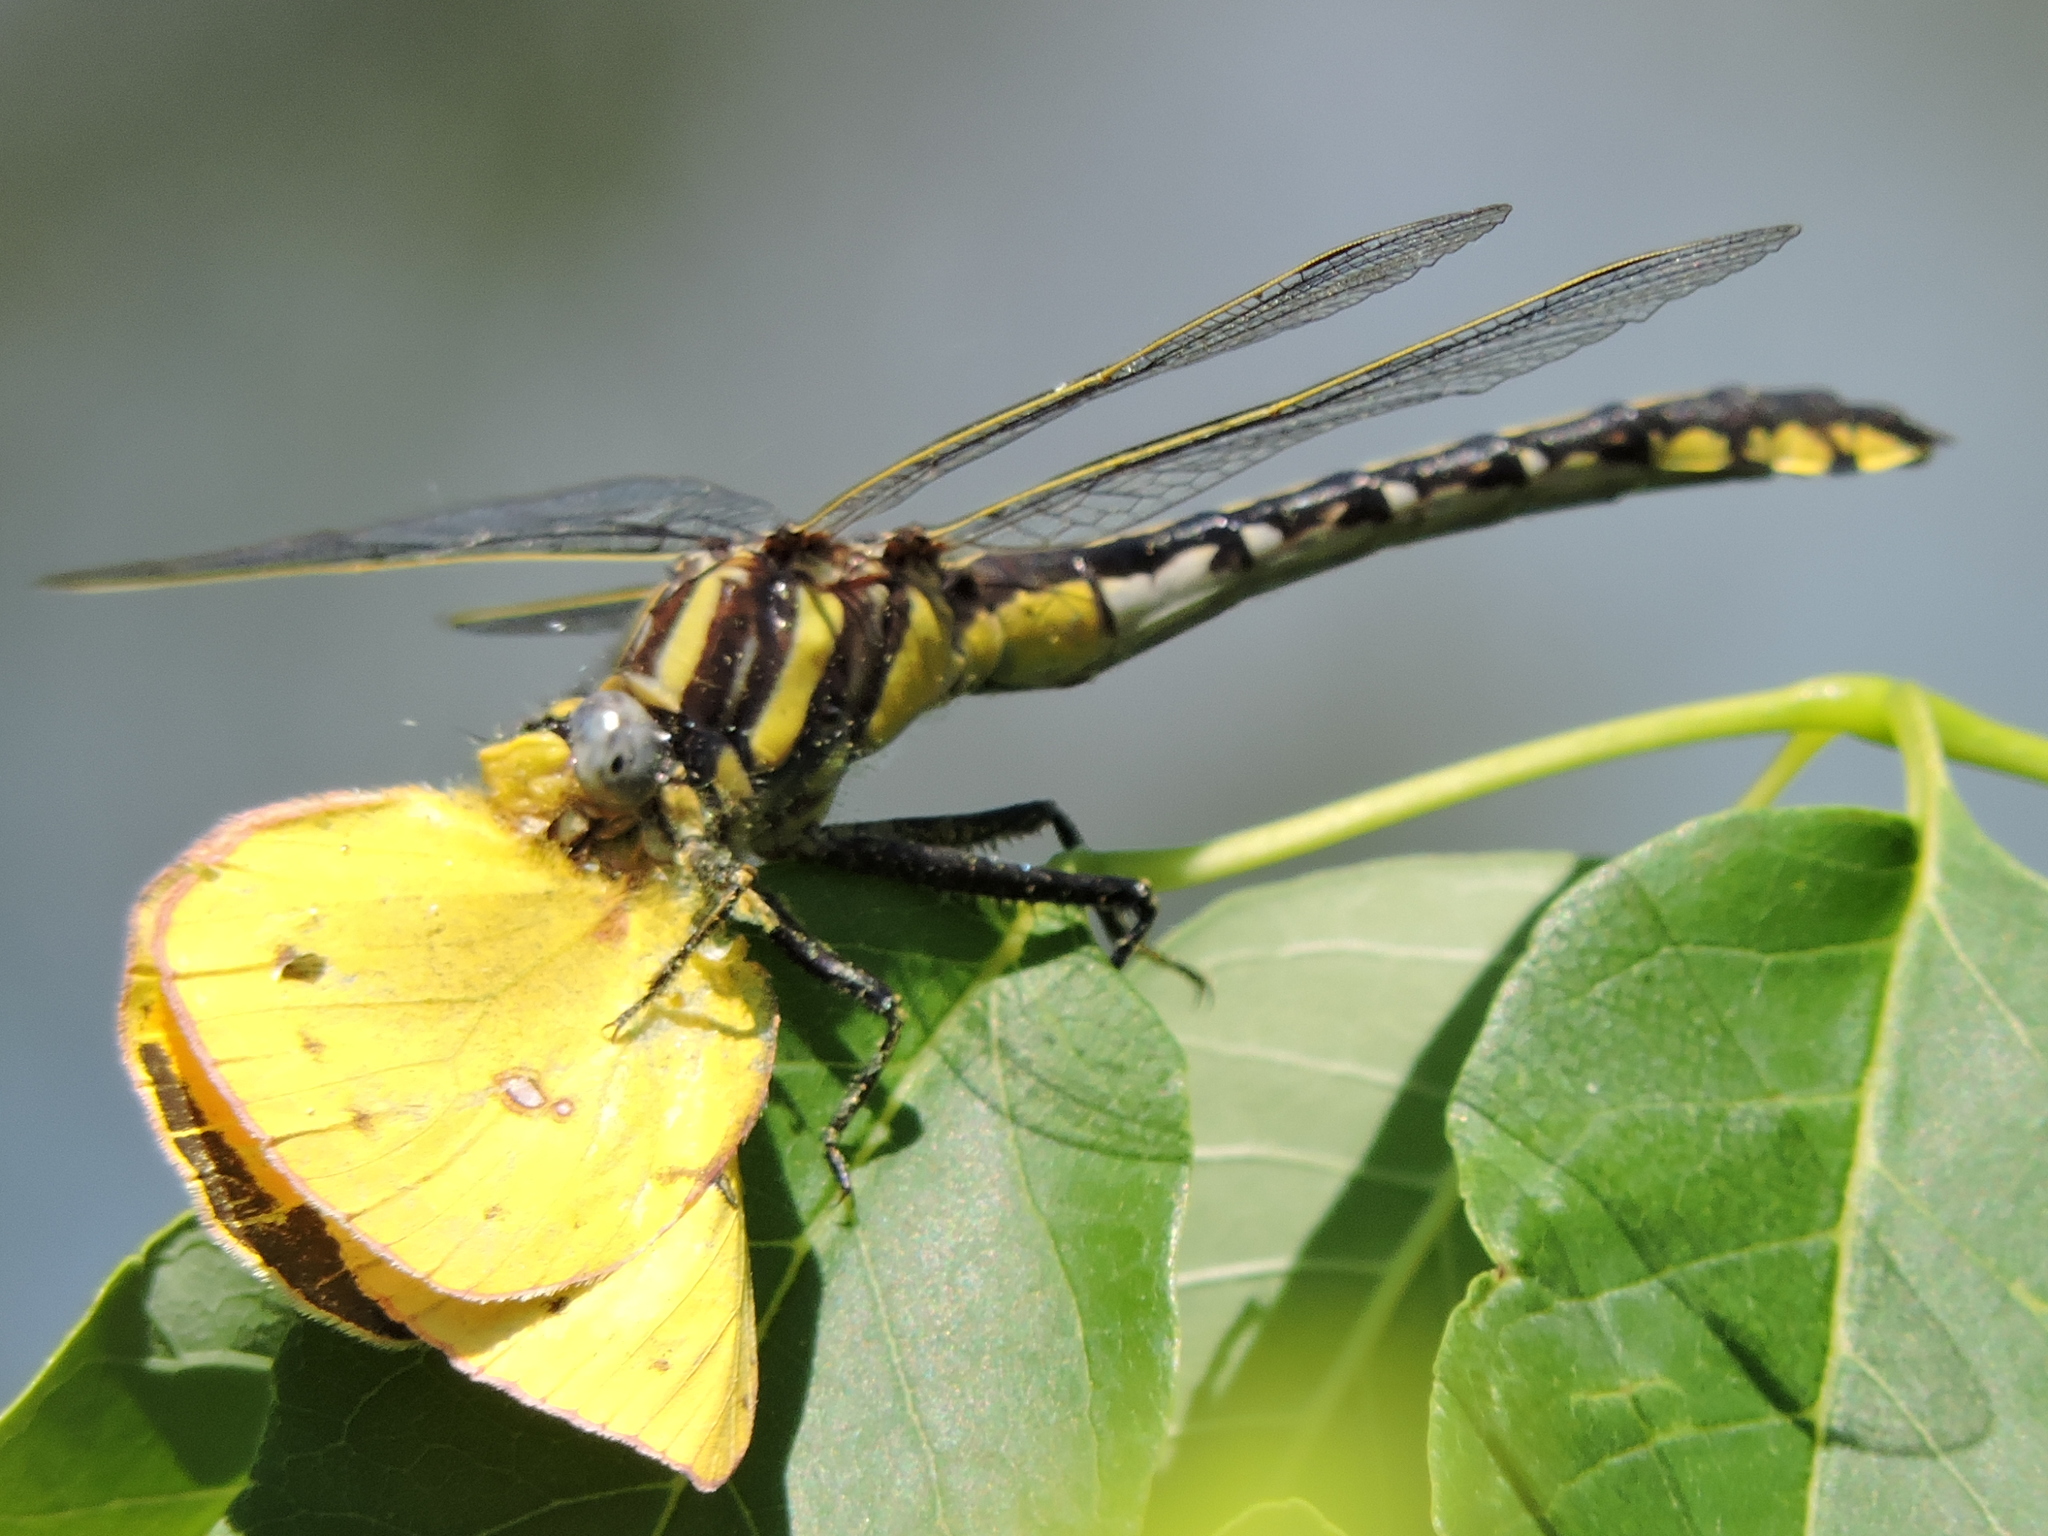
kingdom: Animalia
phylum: Arthropoda
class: Insecta
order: Odonata
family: Gomphidae
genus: Gomphurus
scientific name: Gomphurus externus
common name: Plains clubtail
